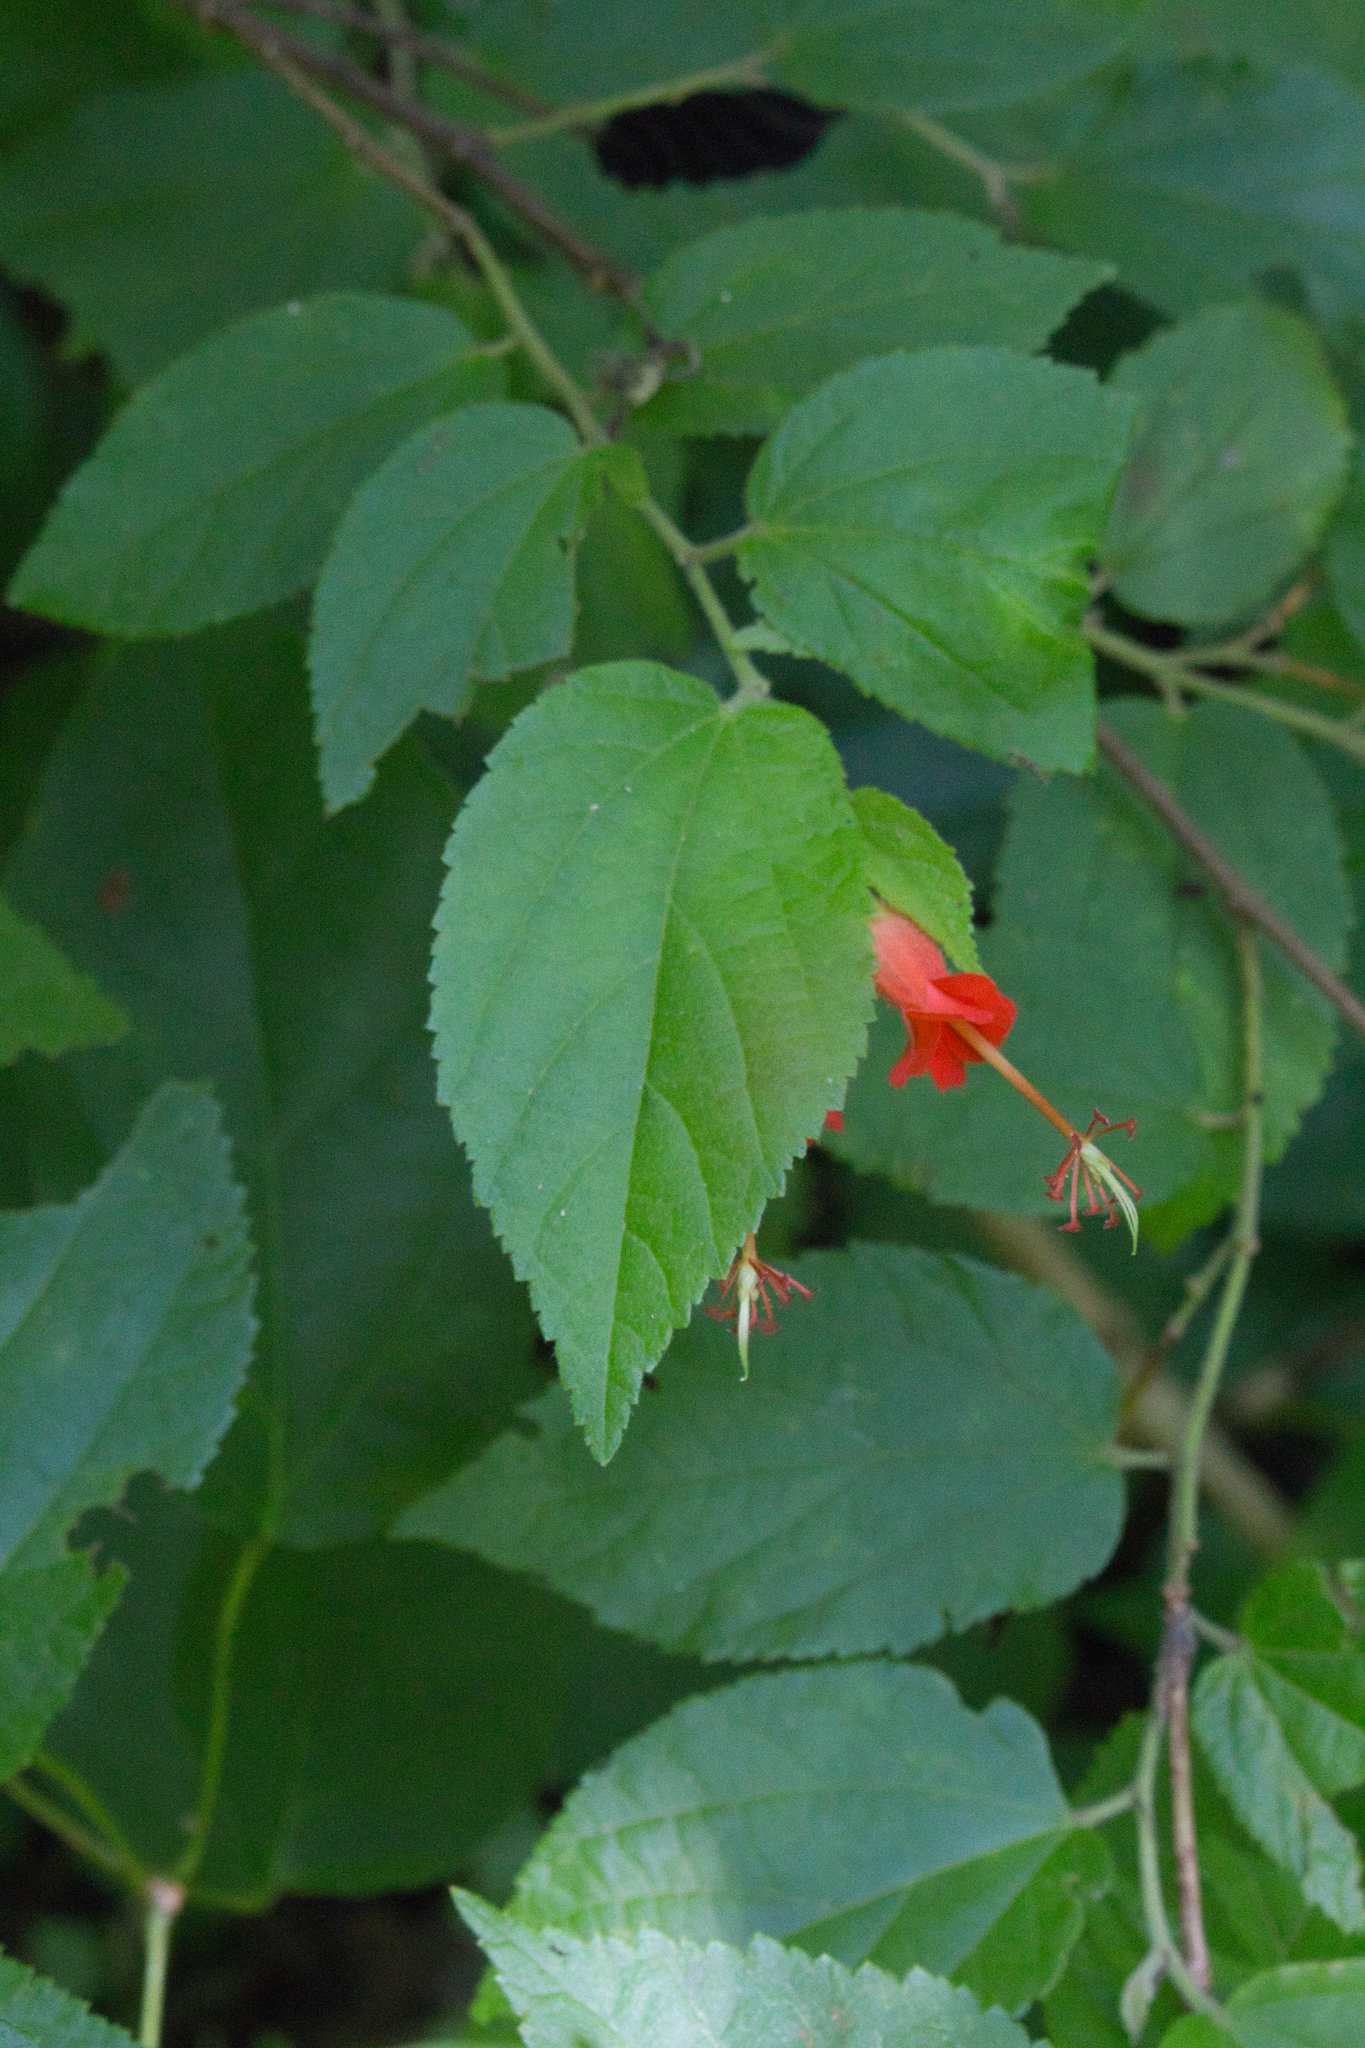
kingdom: Plantae
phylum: Tracheophyta
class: Magnoliopsida
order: Malvales
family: Malvaceae
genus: Helicteres
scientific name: Helicteres guazumifolia
